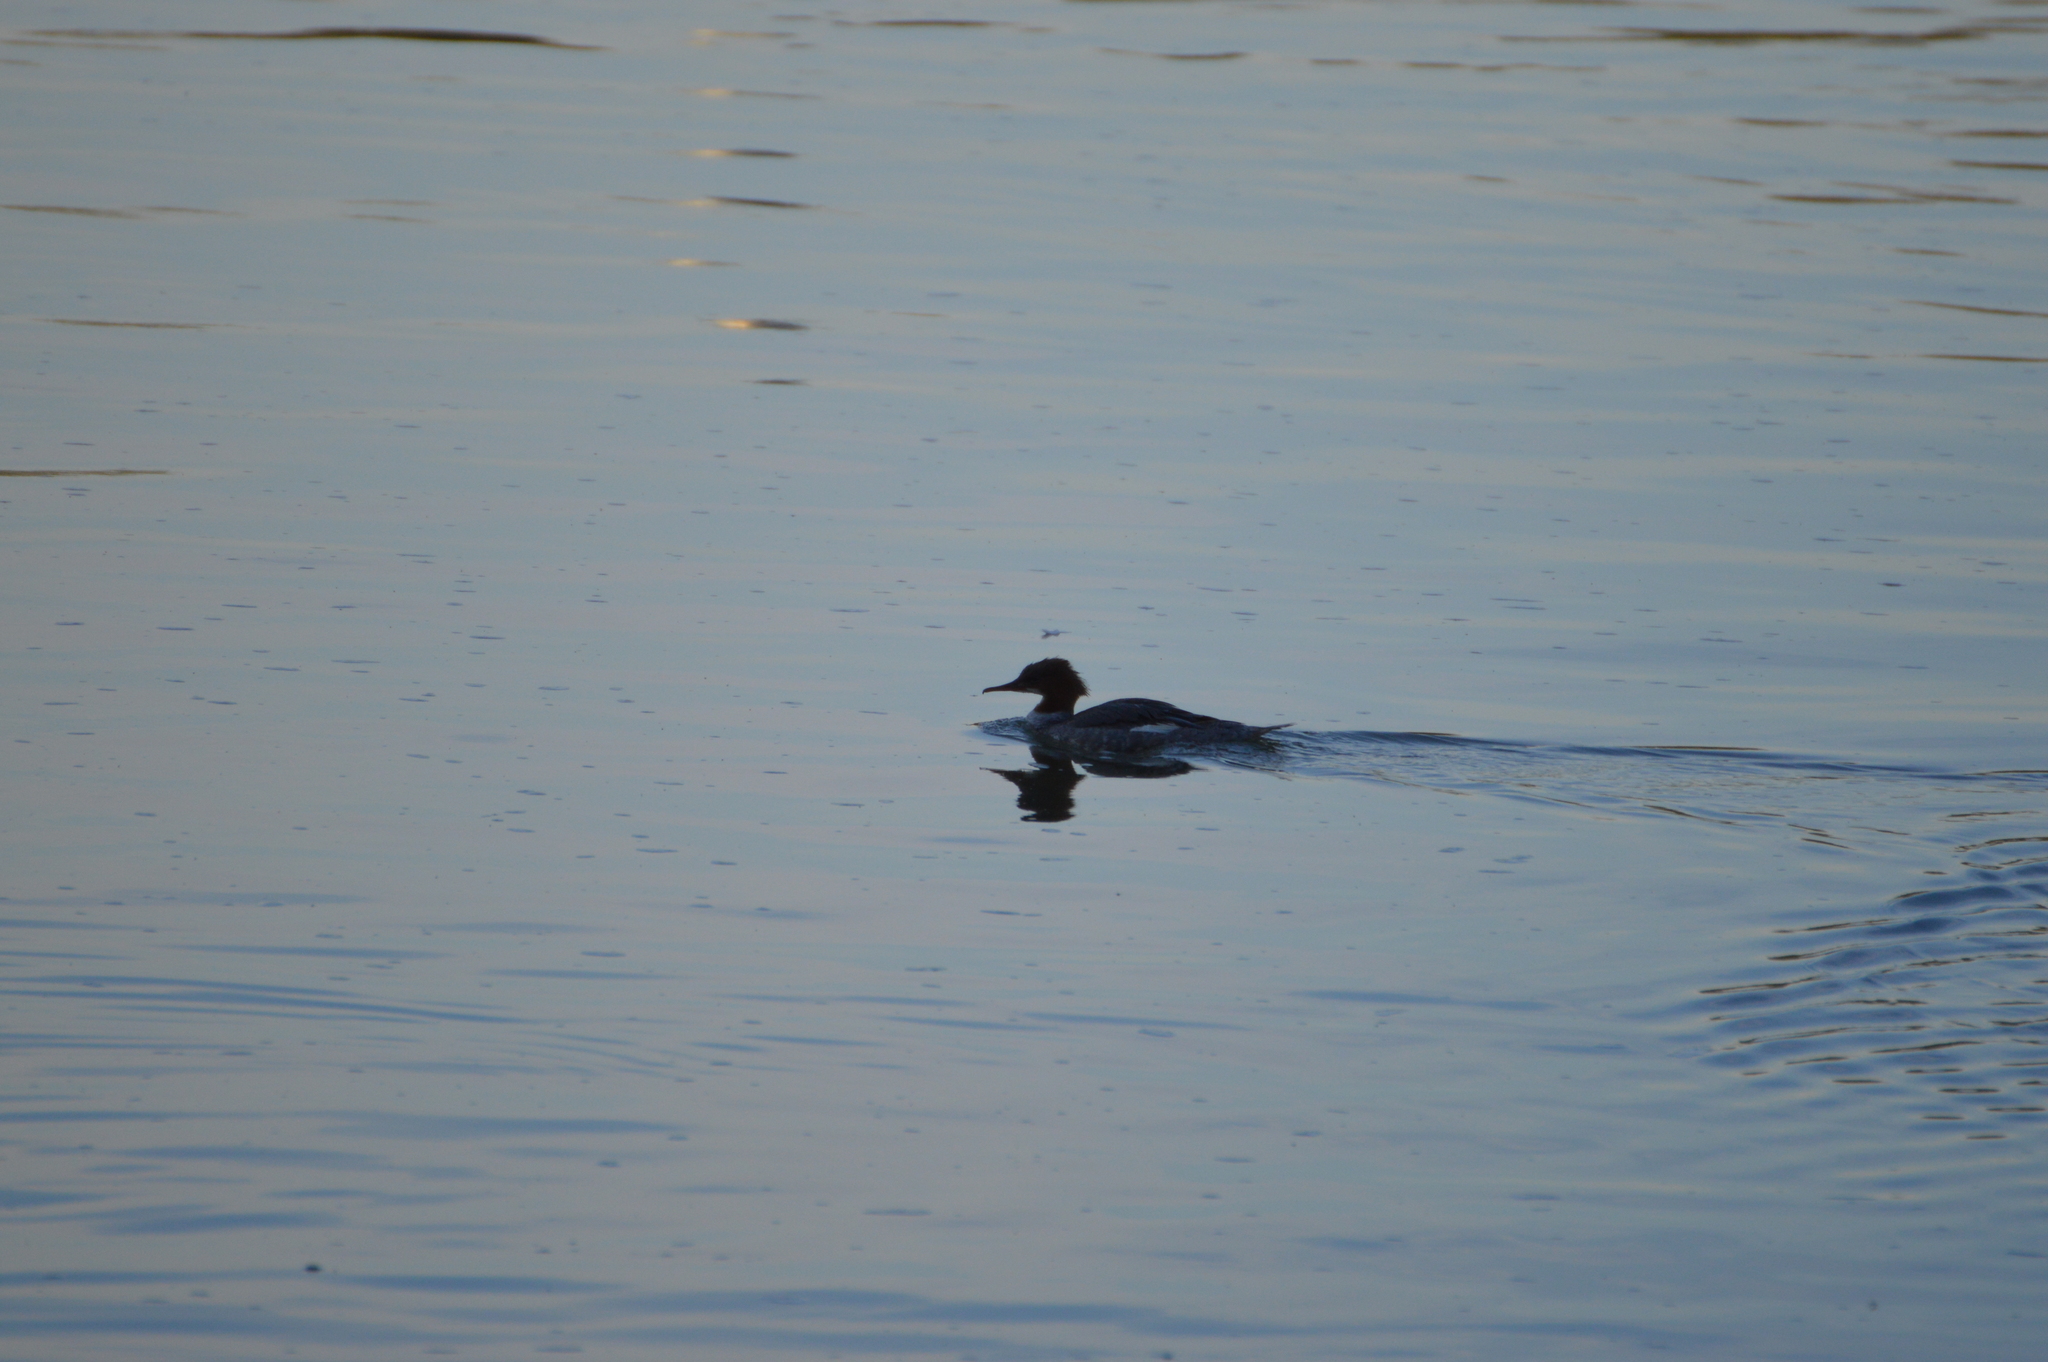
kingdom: Animalia
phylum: Chordata
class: Aves
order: Anseriformes
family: Anatidae
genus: Mergus
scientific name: Mergus merganser
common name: Common merganser
